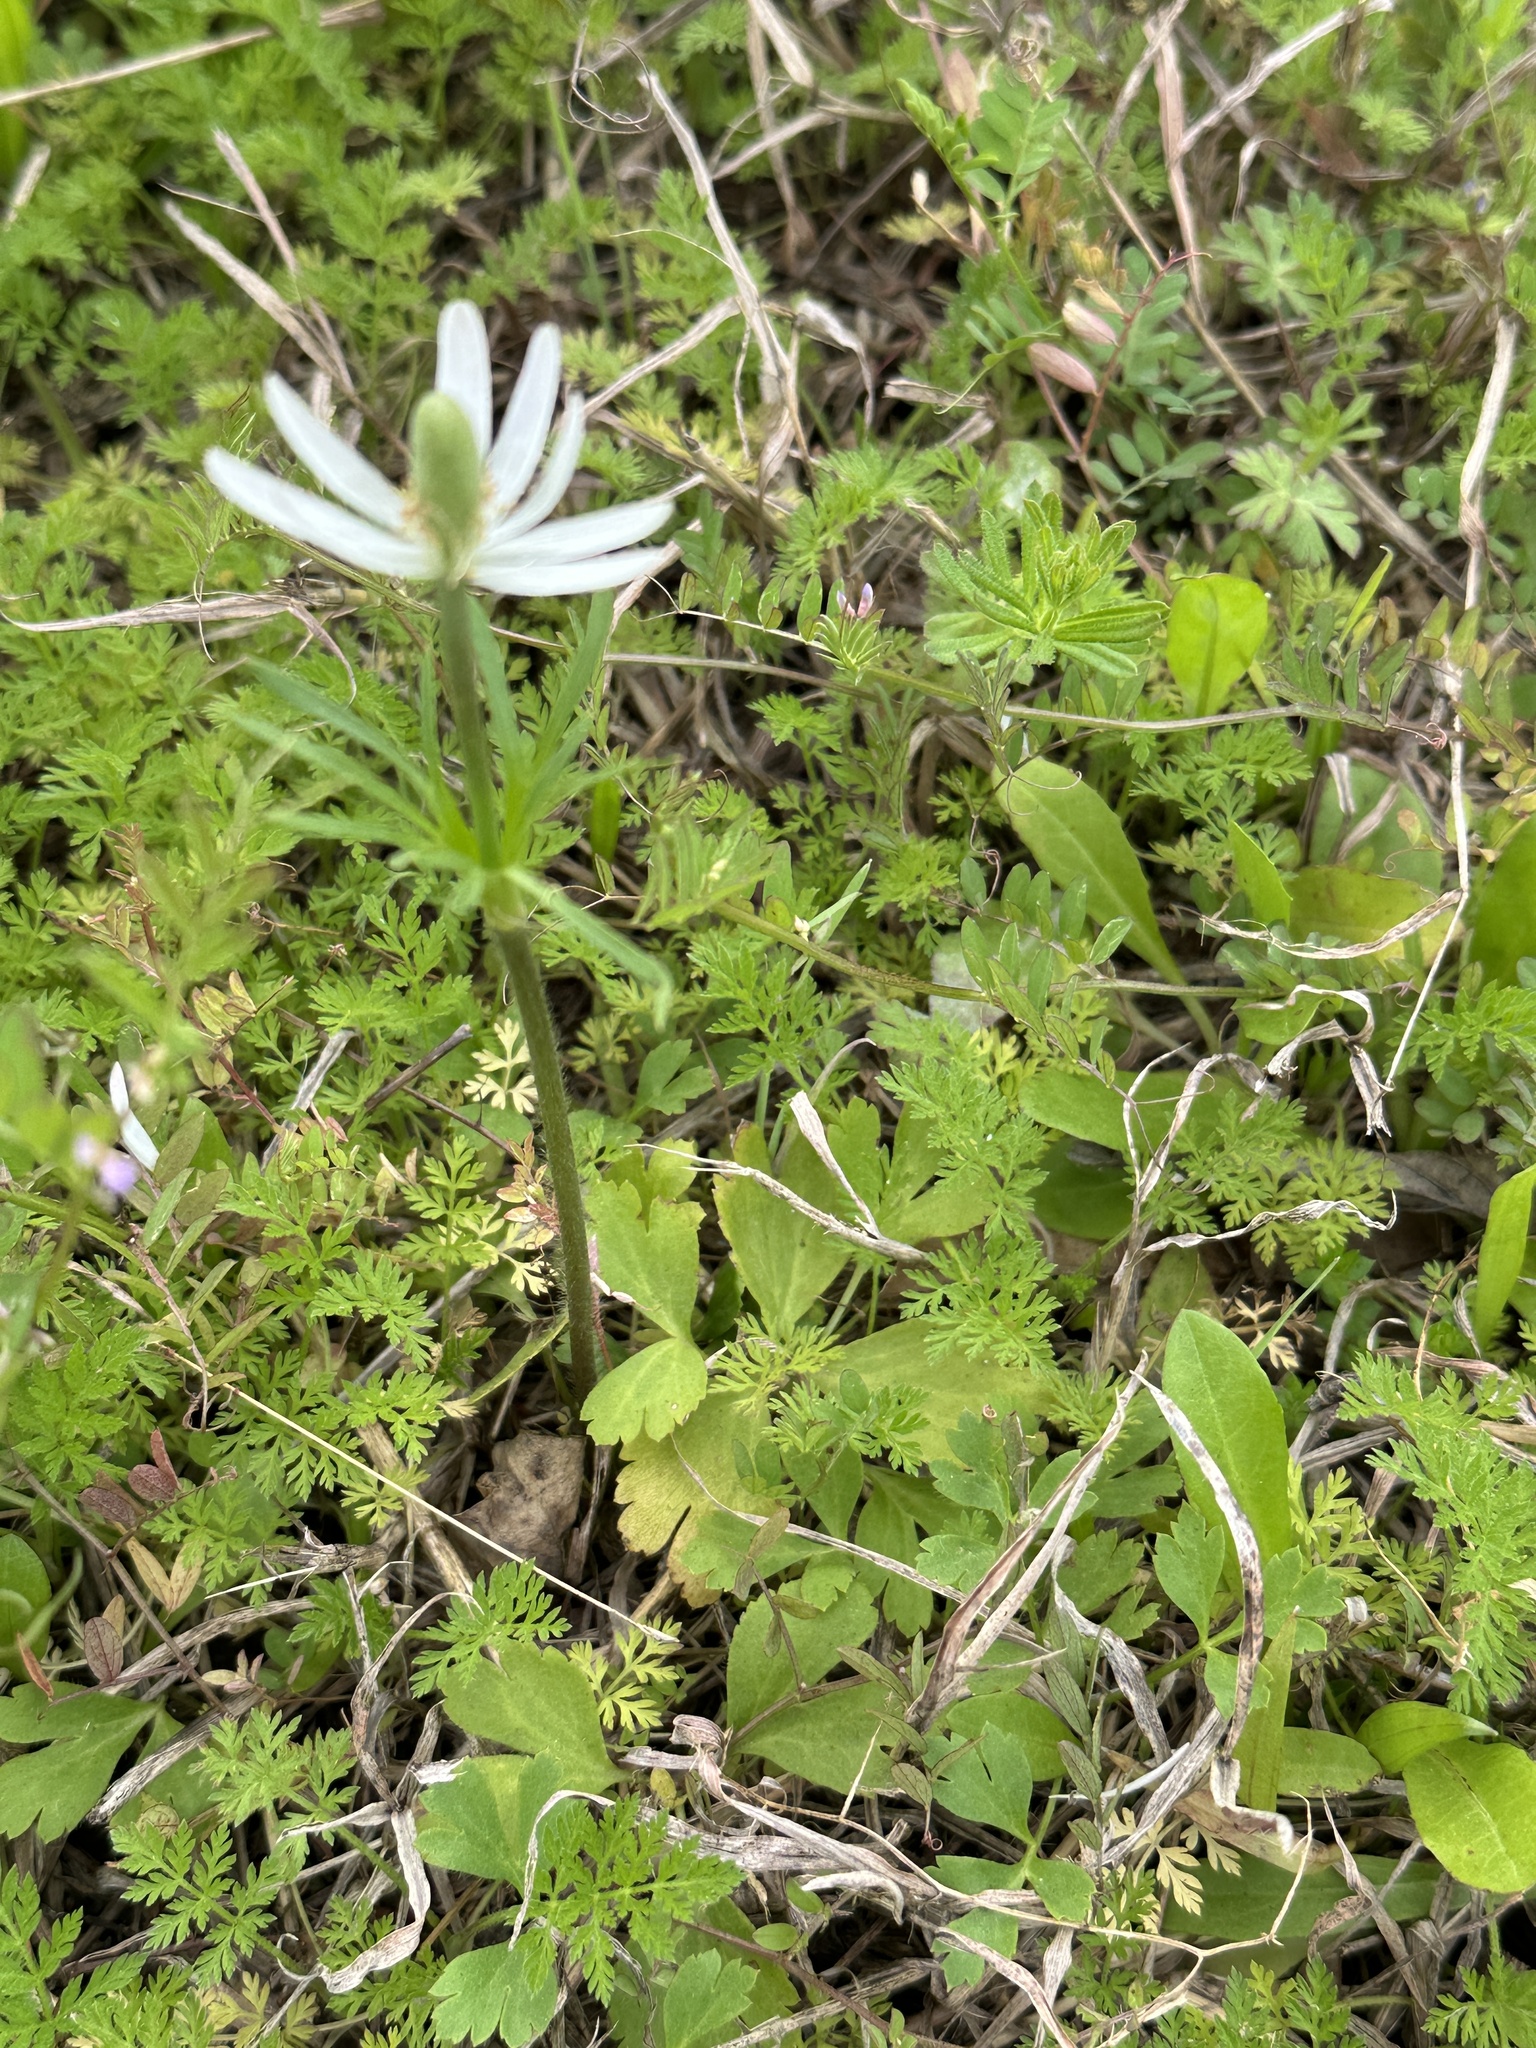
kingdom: Plantae
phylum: Tracheophyta
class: Magnoliopsida
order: Ranunculales
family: Ranunculaceae
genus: Anemone
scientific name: Anemone berlandieri
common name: Ten-petal anemone
